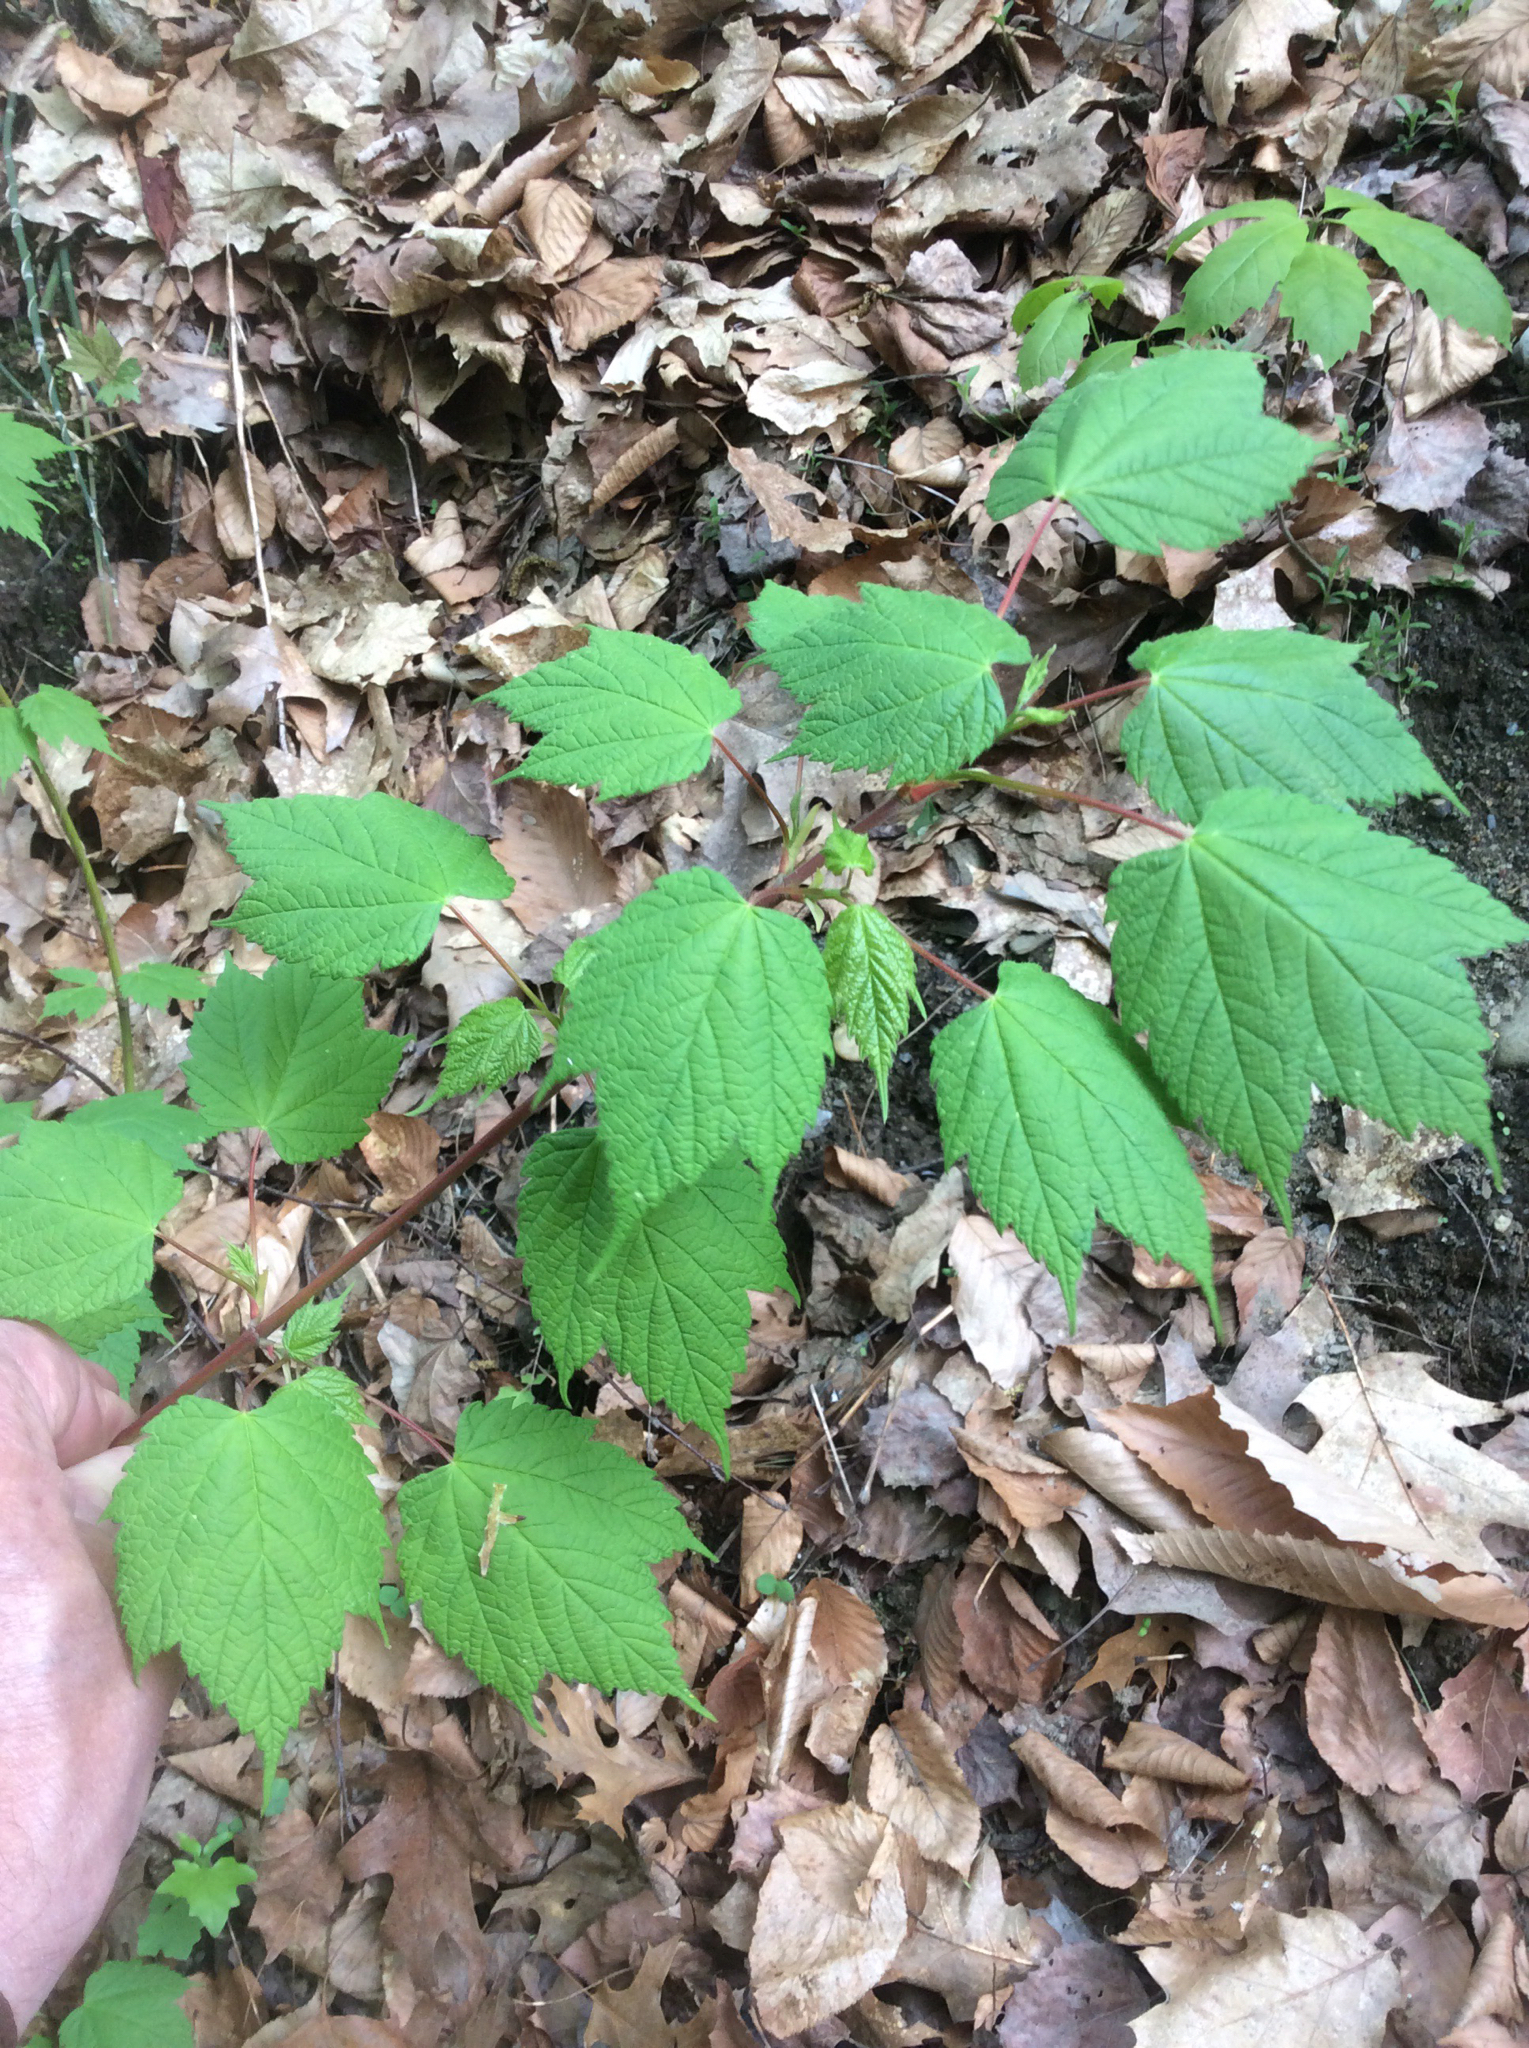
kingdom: Plantae
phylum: Tracheophyta
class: Magnoliopsida
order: Sapindales
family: Sapindaceae
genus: Acer
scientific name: Acer spicatum
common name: Mountain maple
